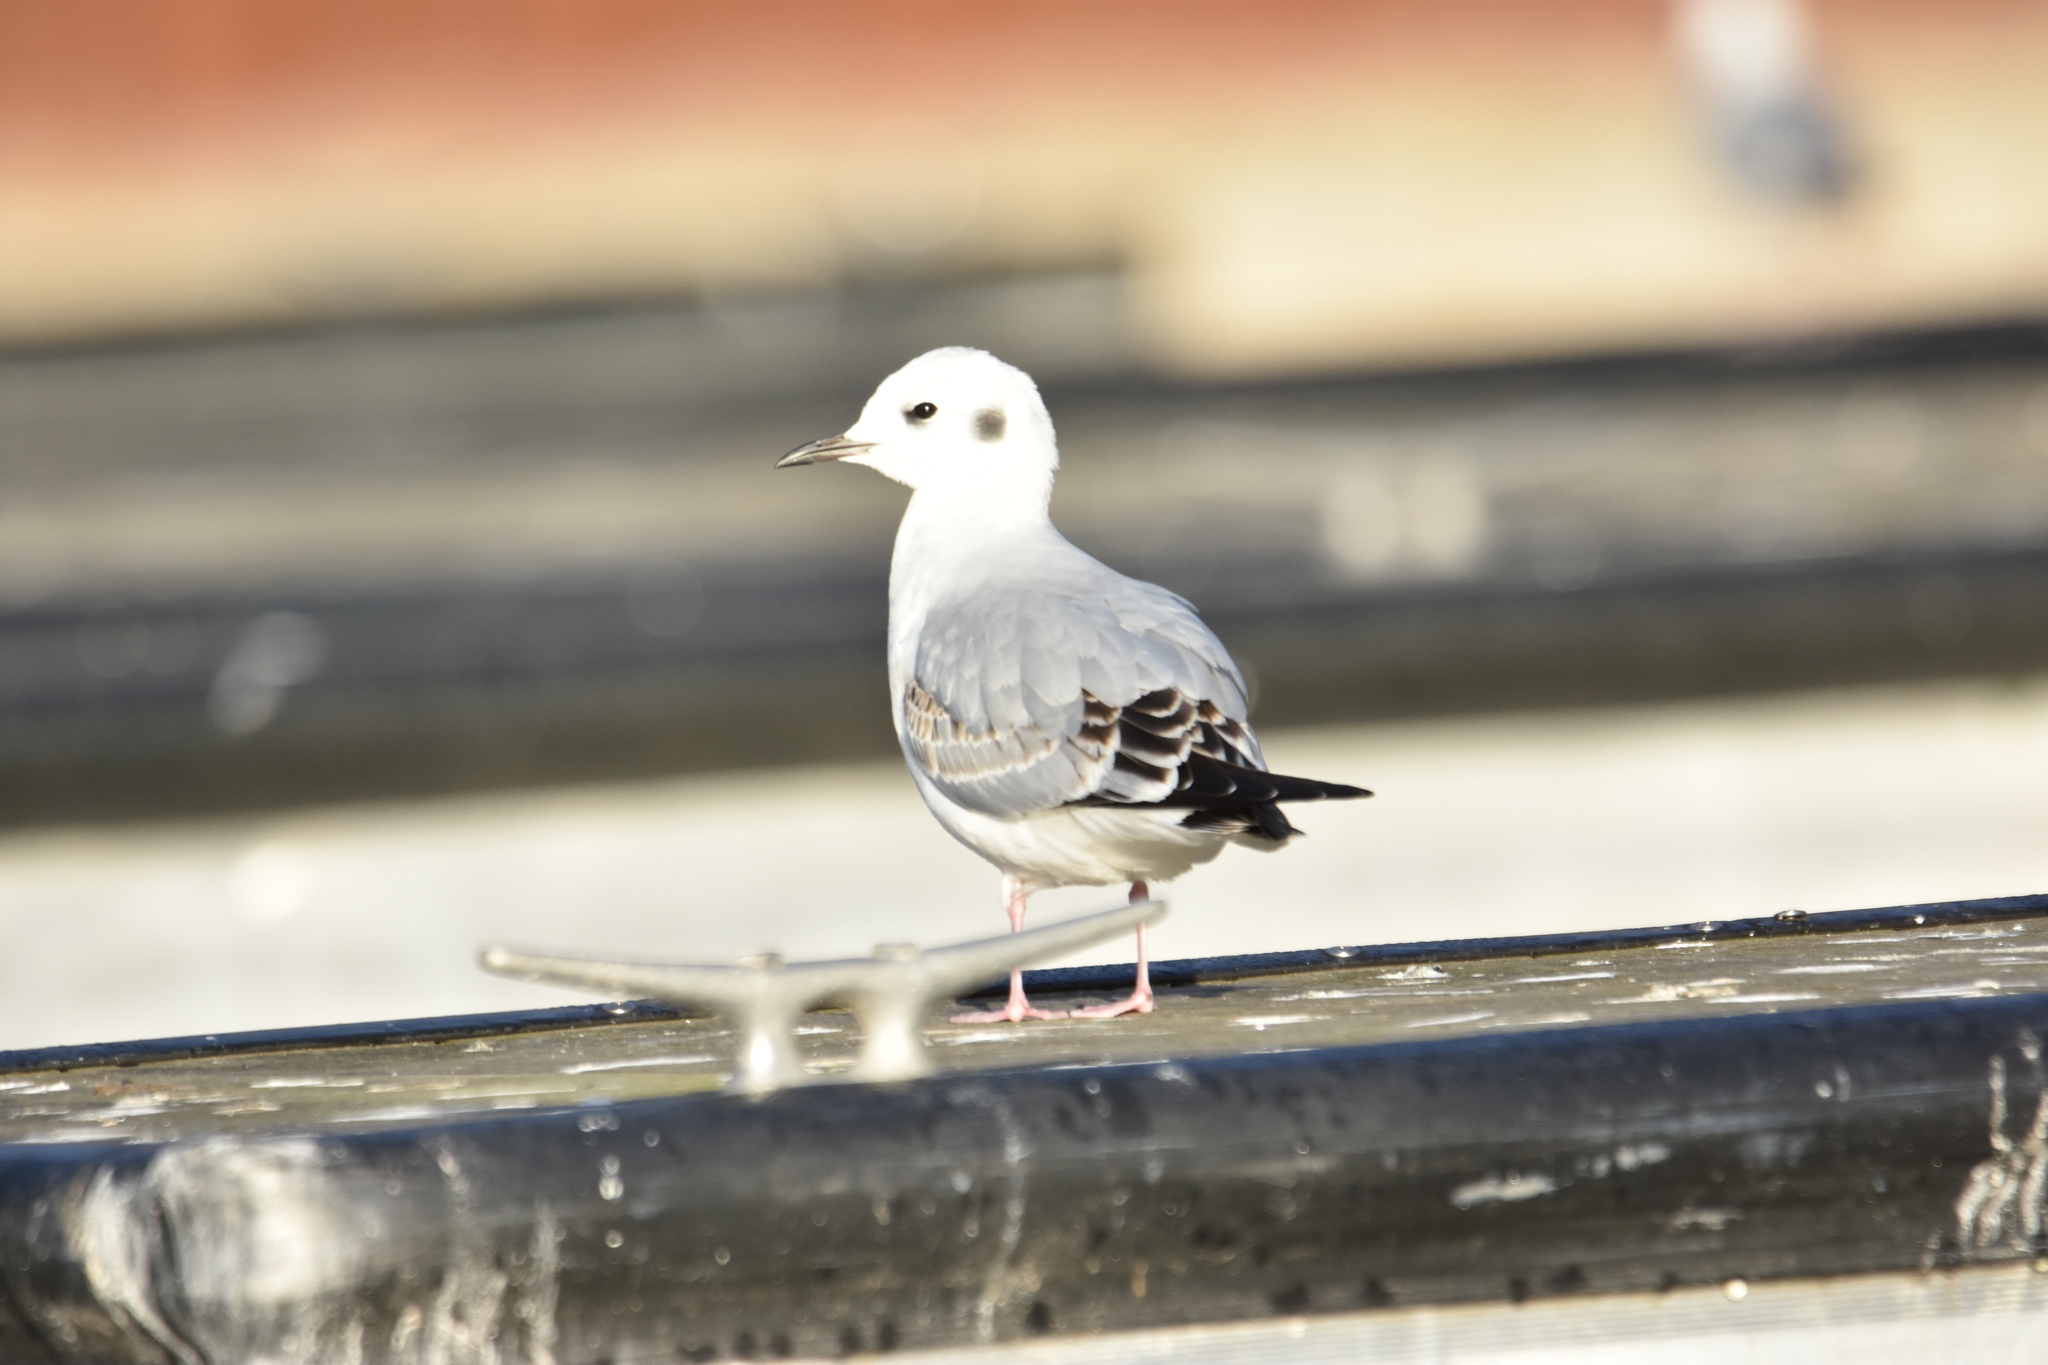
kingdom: Animalia
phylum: Chordata
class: Aves
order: Charadriiformes
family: Laridae
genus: Chroicocephalus
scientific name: Chroicocephalus philadelphia
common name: Bonaparte's gull
